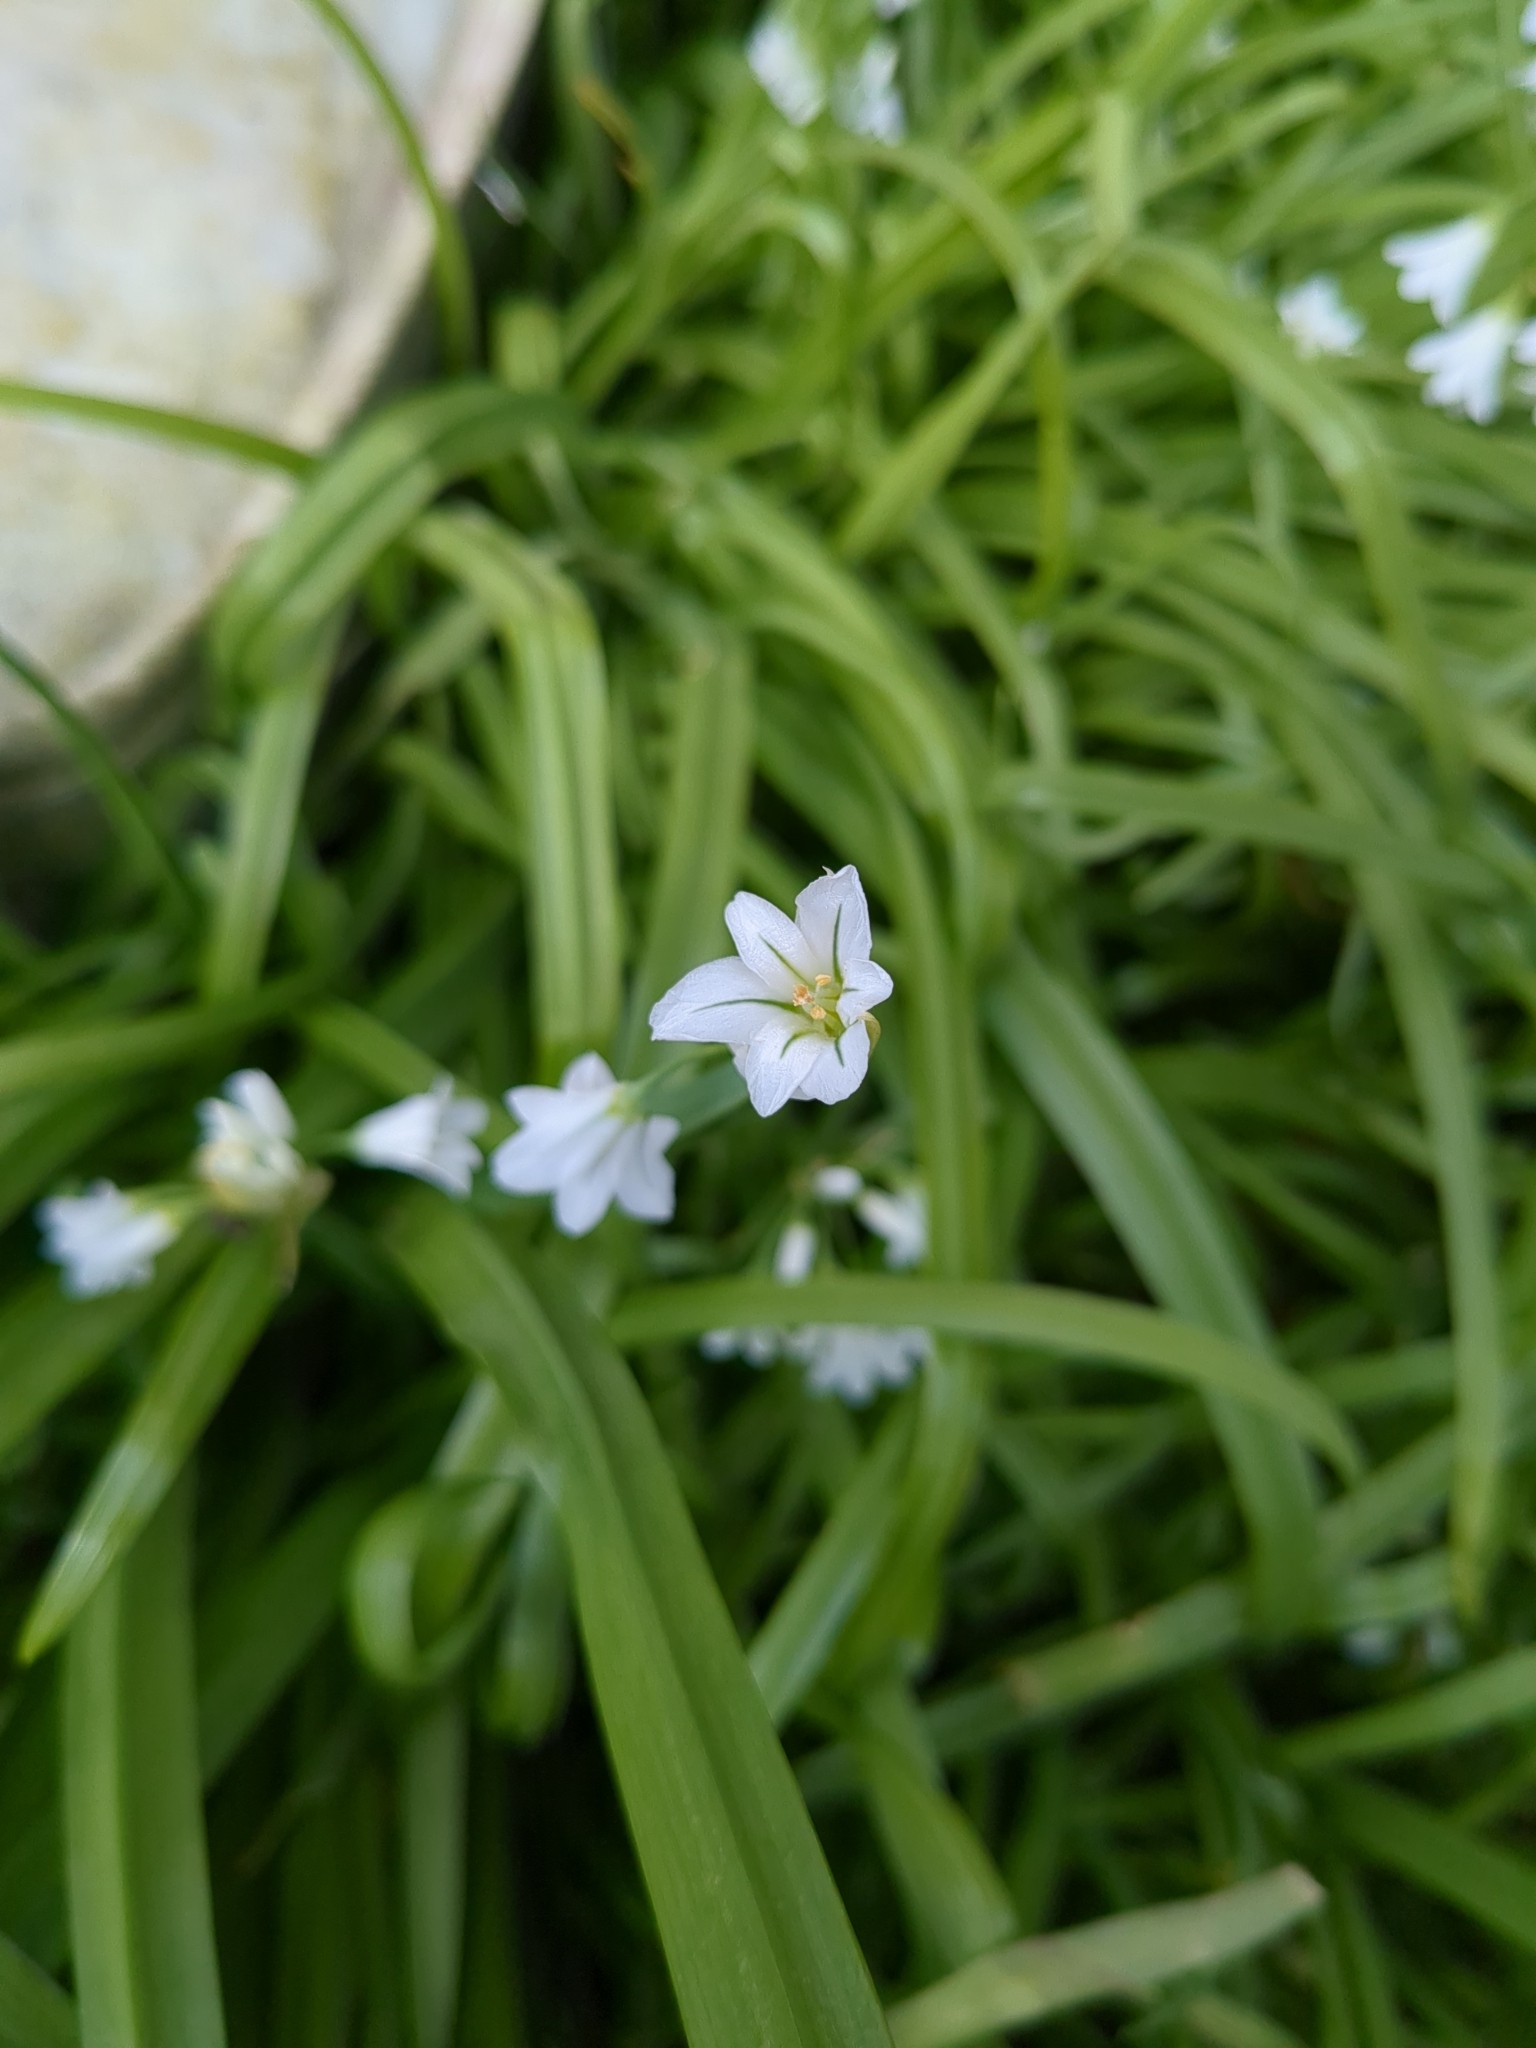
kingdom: Plantae
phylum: Tracheophyta
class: Liliopsida
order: Asparagales
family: Amaryllidaceae
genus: Allium
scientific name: Allium triquetrum
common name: Three-cornered garlic
